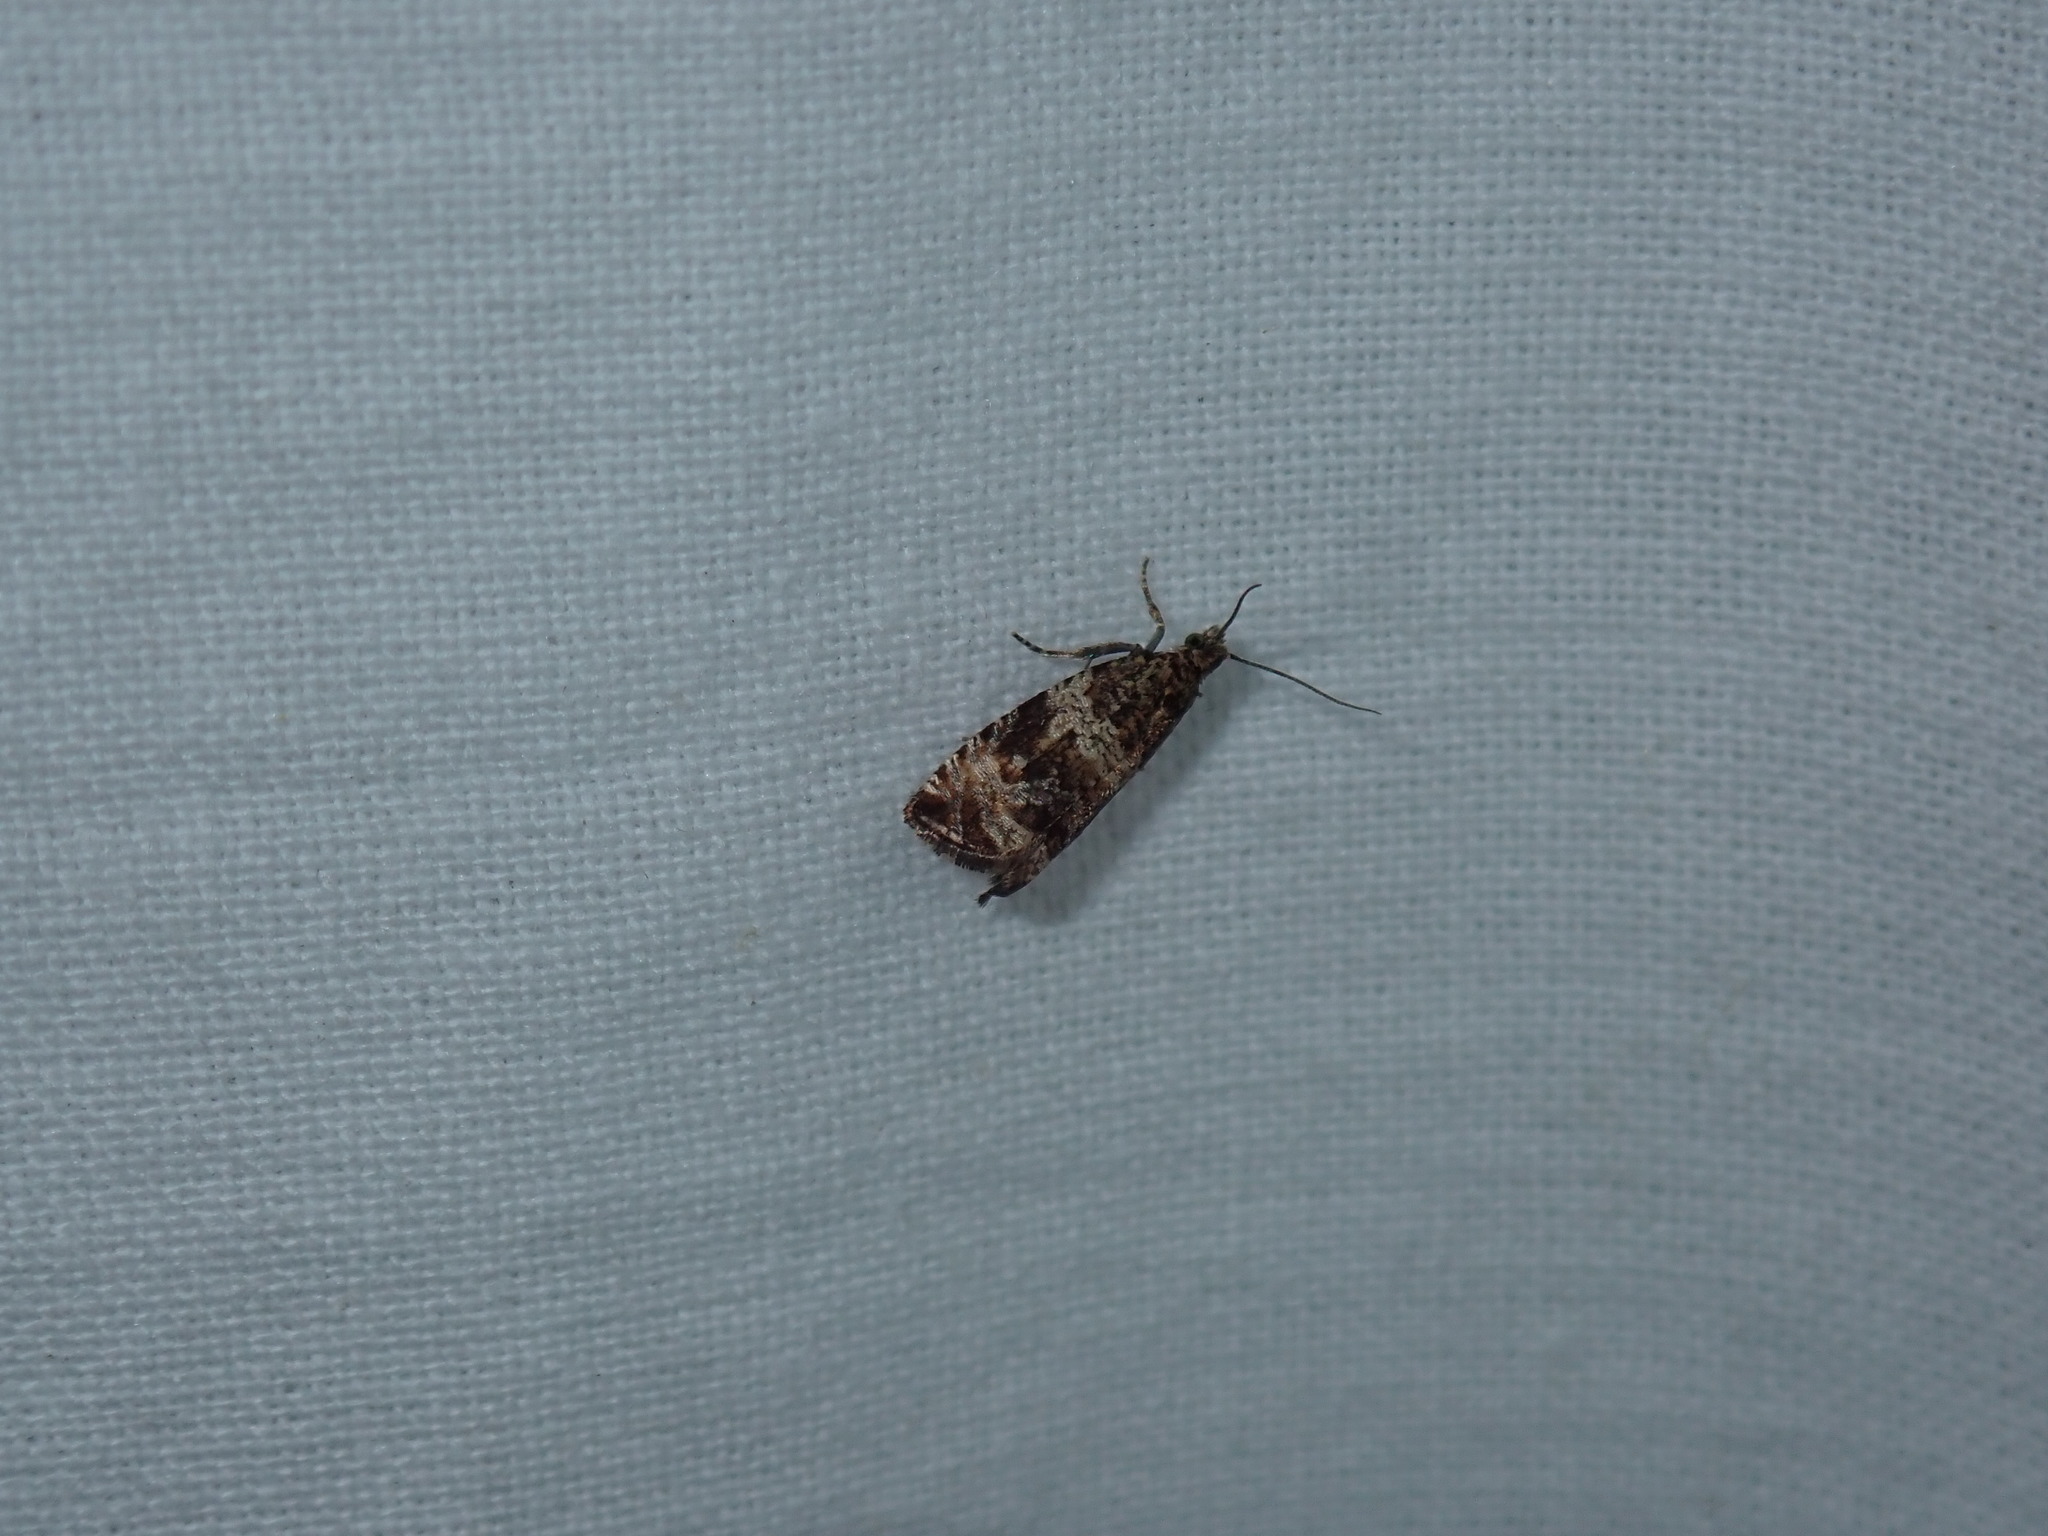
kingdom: Animalia
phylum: Arthropoda
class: Insecta
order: Lepidoptera
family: Tortricidae
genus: Celypha
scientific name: Celypha cespitana
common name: Thyme marble
